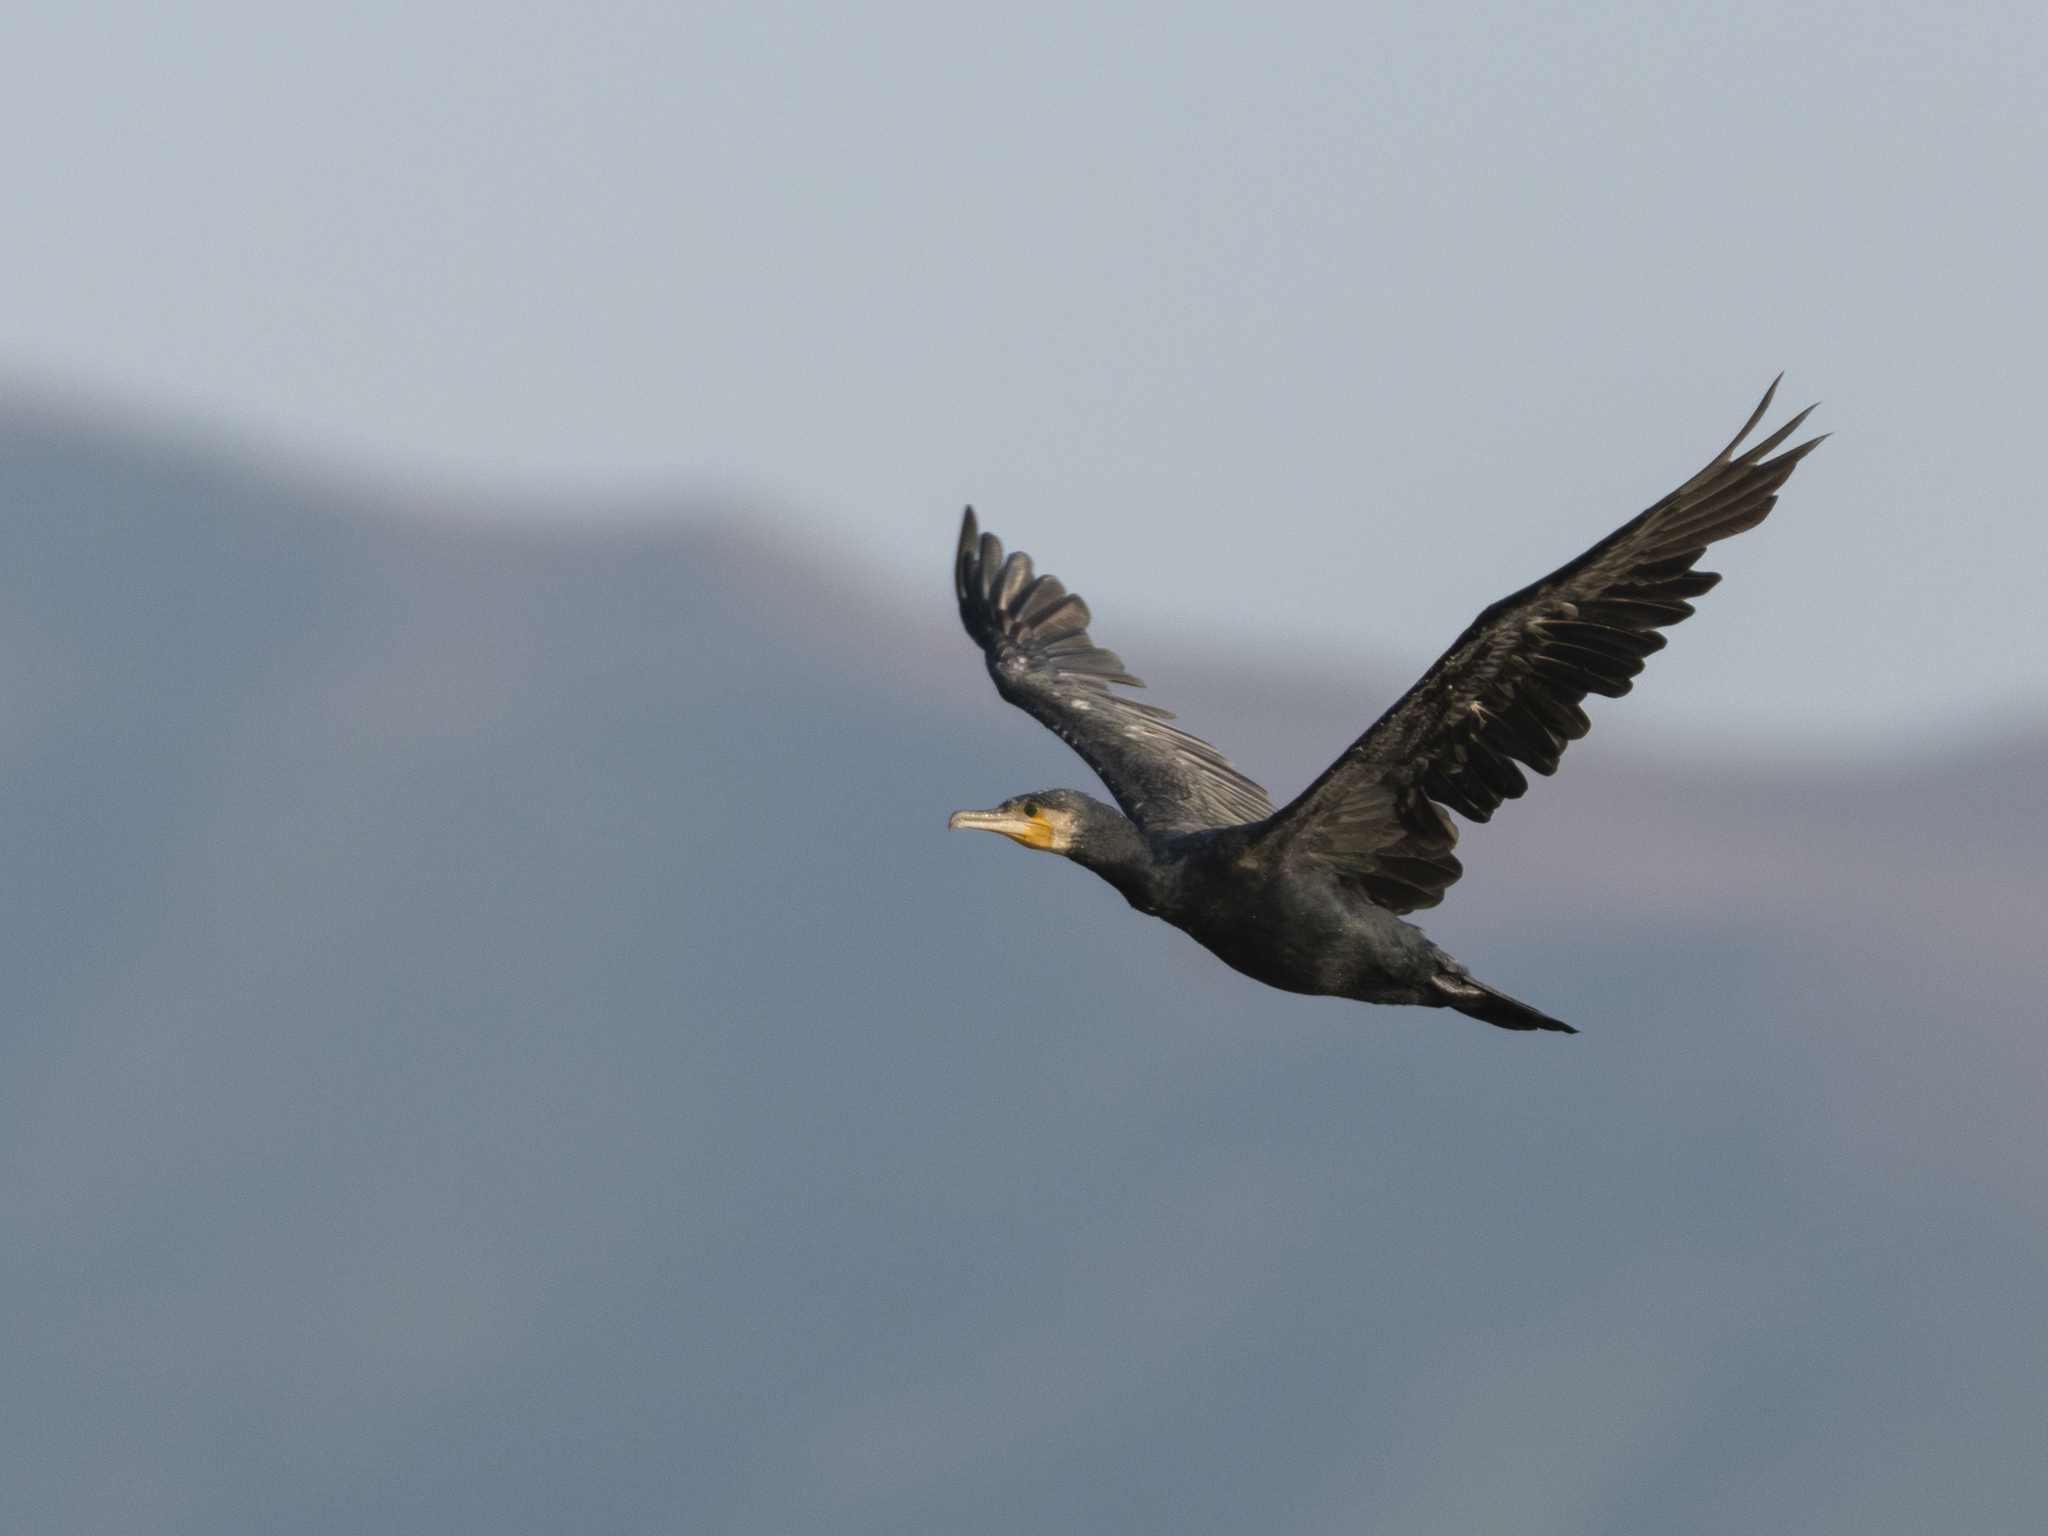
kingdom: Animalia
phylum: Chordata
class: Aves
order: Suliformes
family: Phalacrocoracidae
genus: Phalacrocorax
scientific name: Phalacrocorax carbo
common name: Great cormorant
